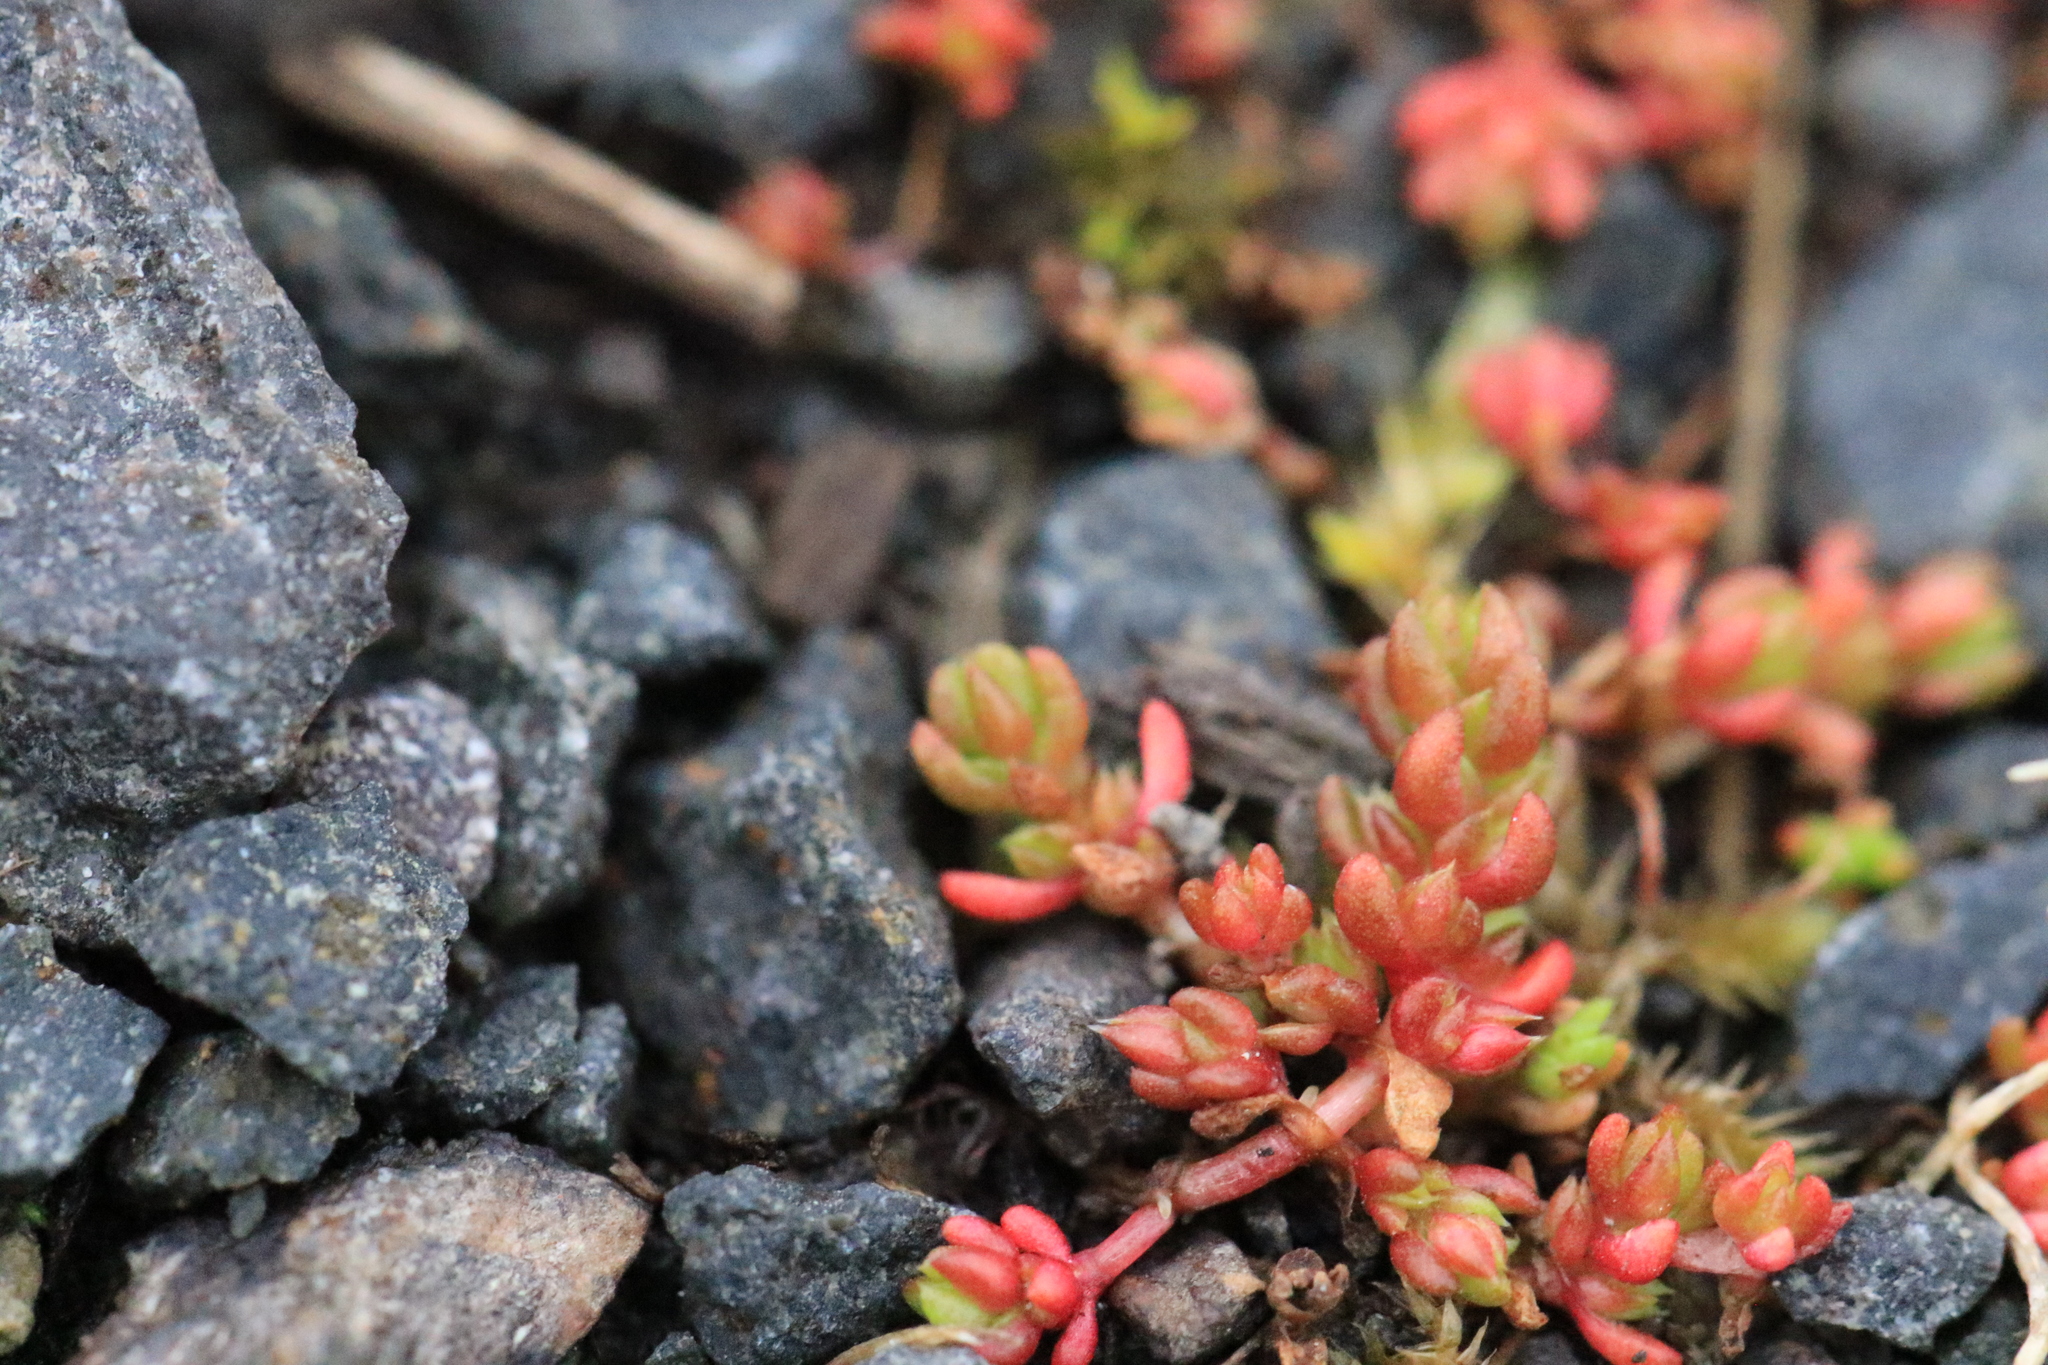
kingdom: Plantae
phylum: Tracheophyta
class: Magnoliopsida
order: Saxifragales
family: Crassulaceae
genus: Crassula
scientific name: Crassula tillaea
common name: Mossy stonecrop
